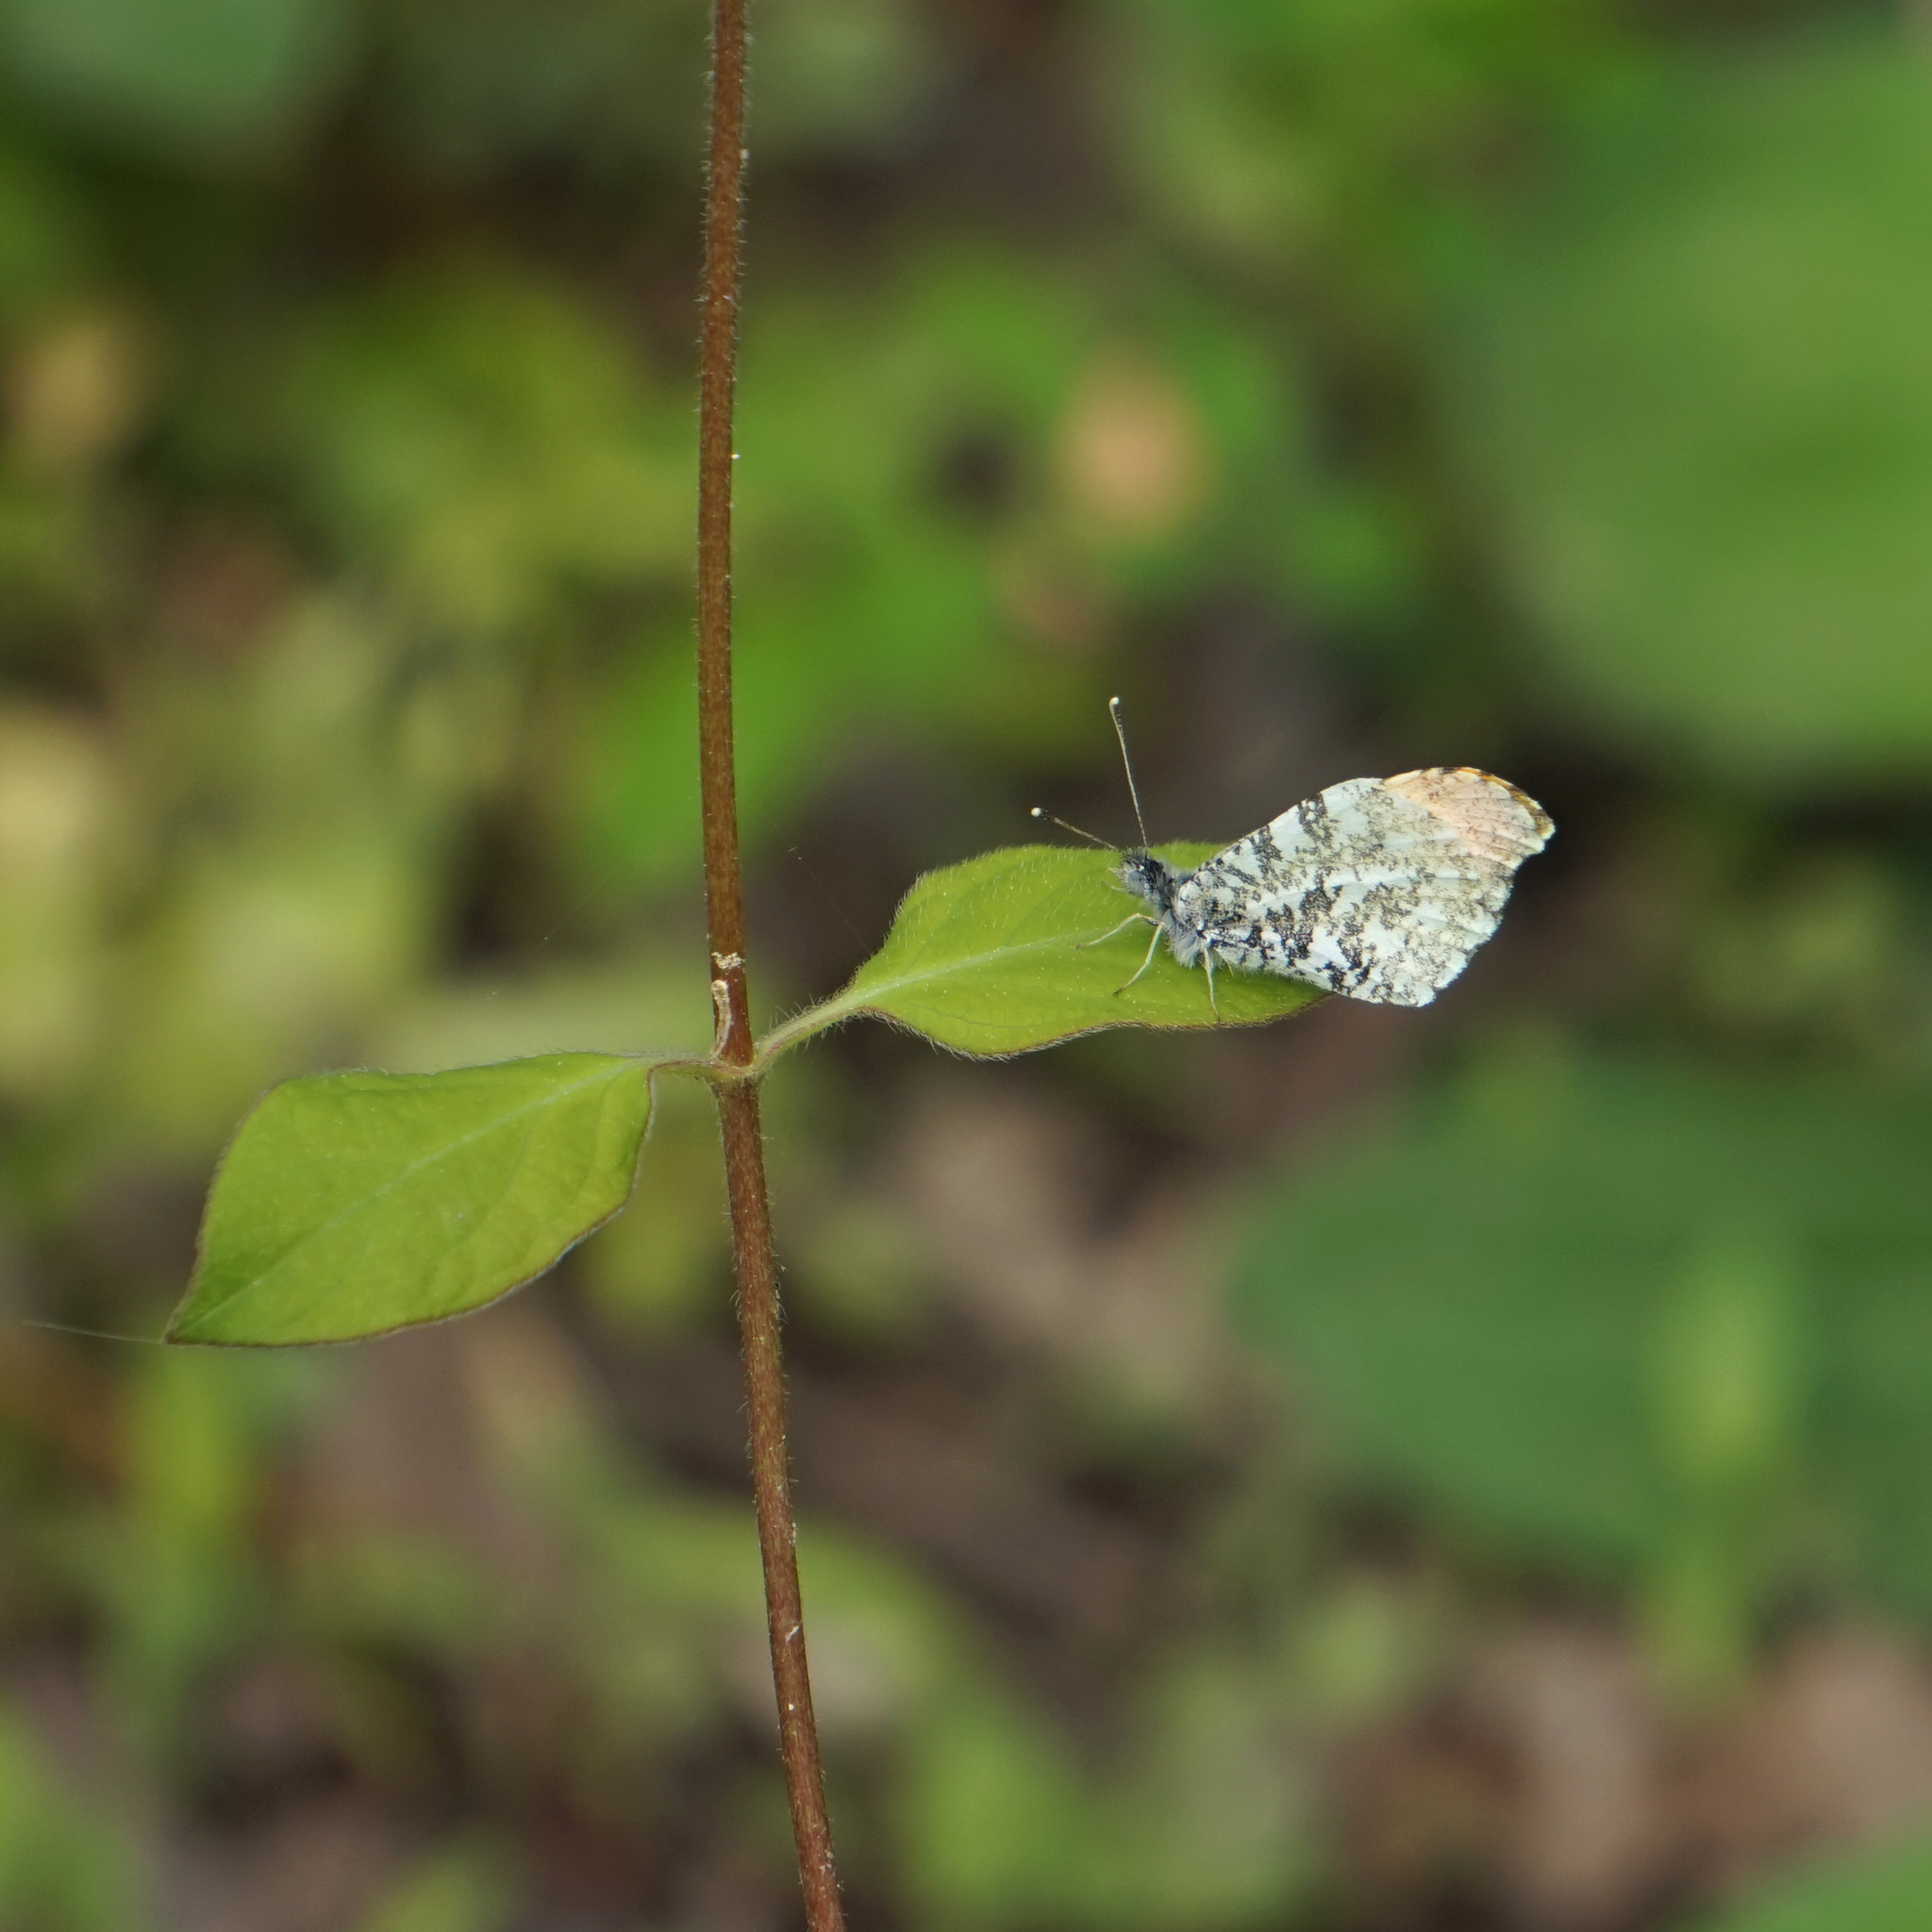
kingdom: Animalia
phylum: Arthropoda
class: Insecta
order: Lepidoptera
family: Pieridae
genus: Anthocharis
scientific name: Anthocharis midea
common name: Falcate orangetip
